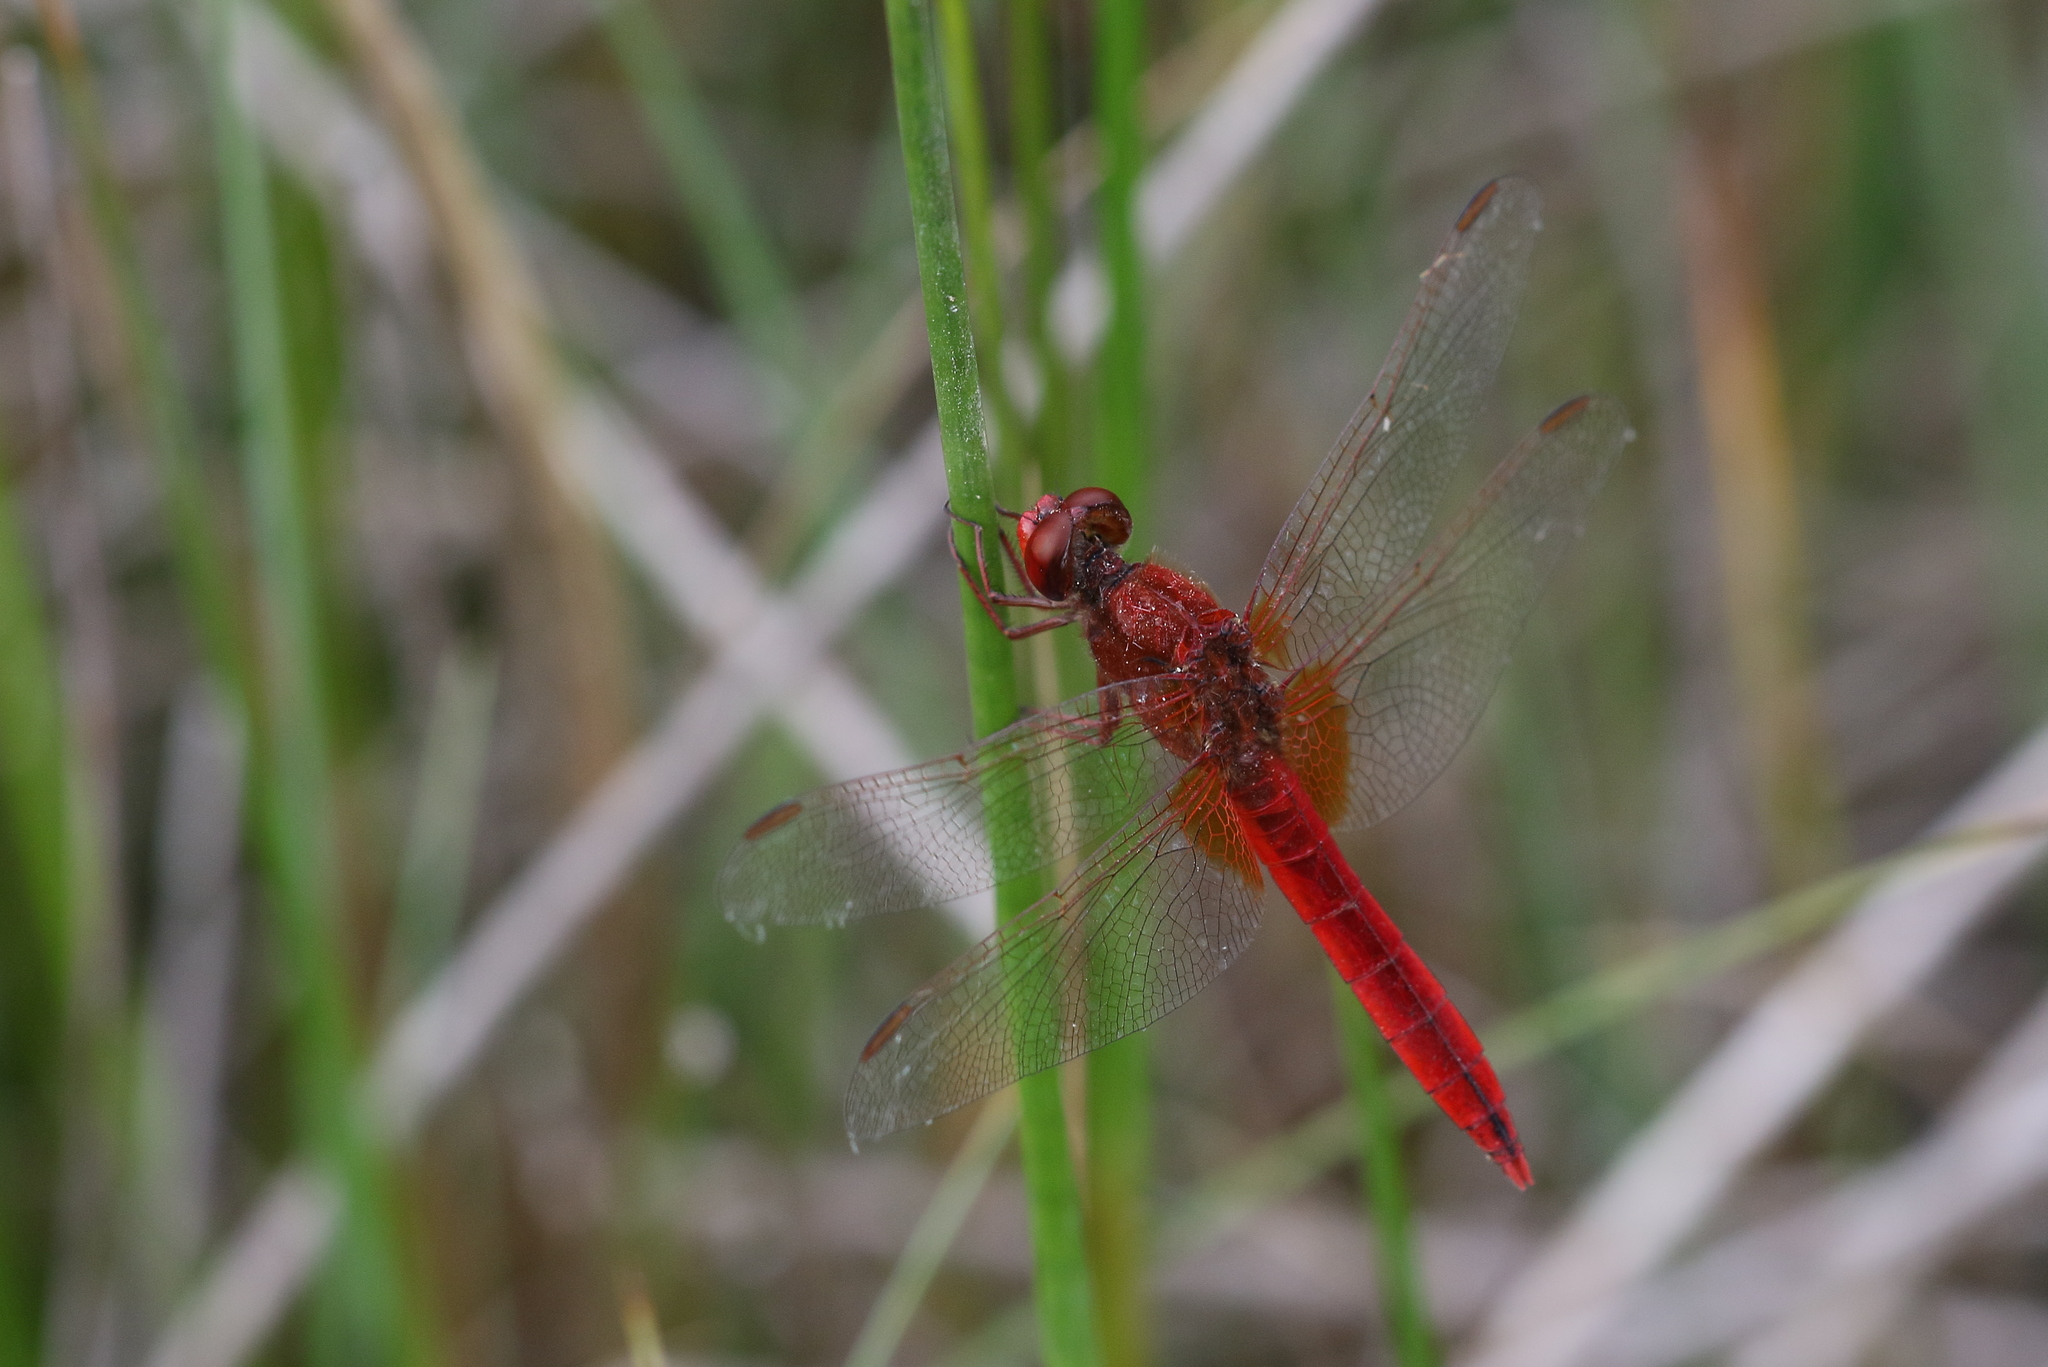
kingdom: Animalia
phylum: Arthropoda
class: Insecta
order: Odonata
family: Libellulidae
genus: Crocothemis
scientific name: Crocothemis erythraea
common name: Scarlet dragonfly
